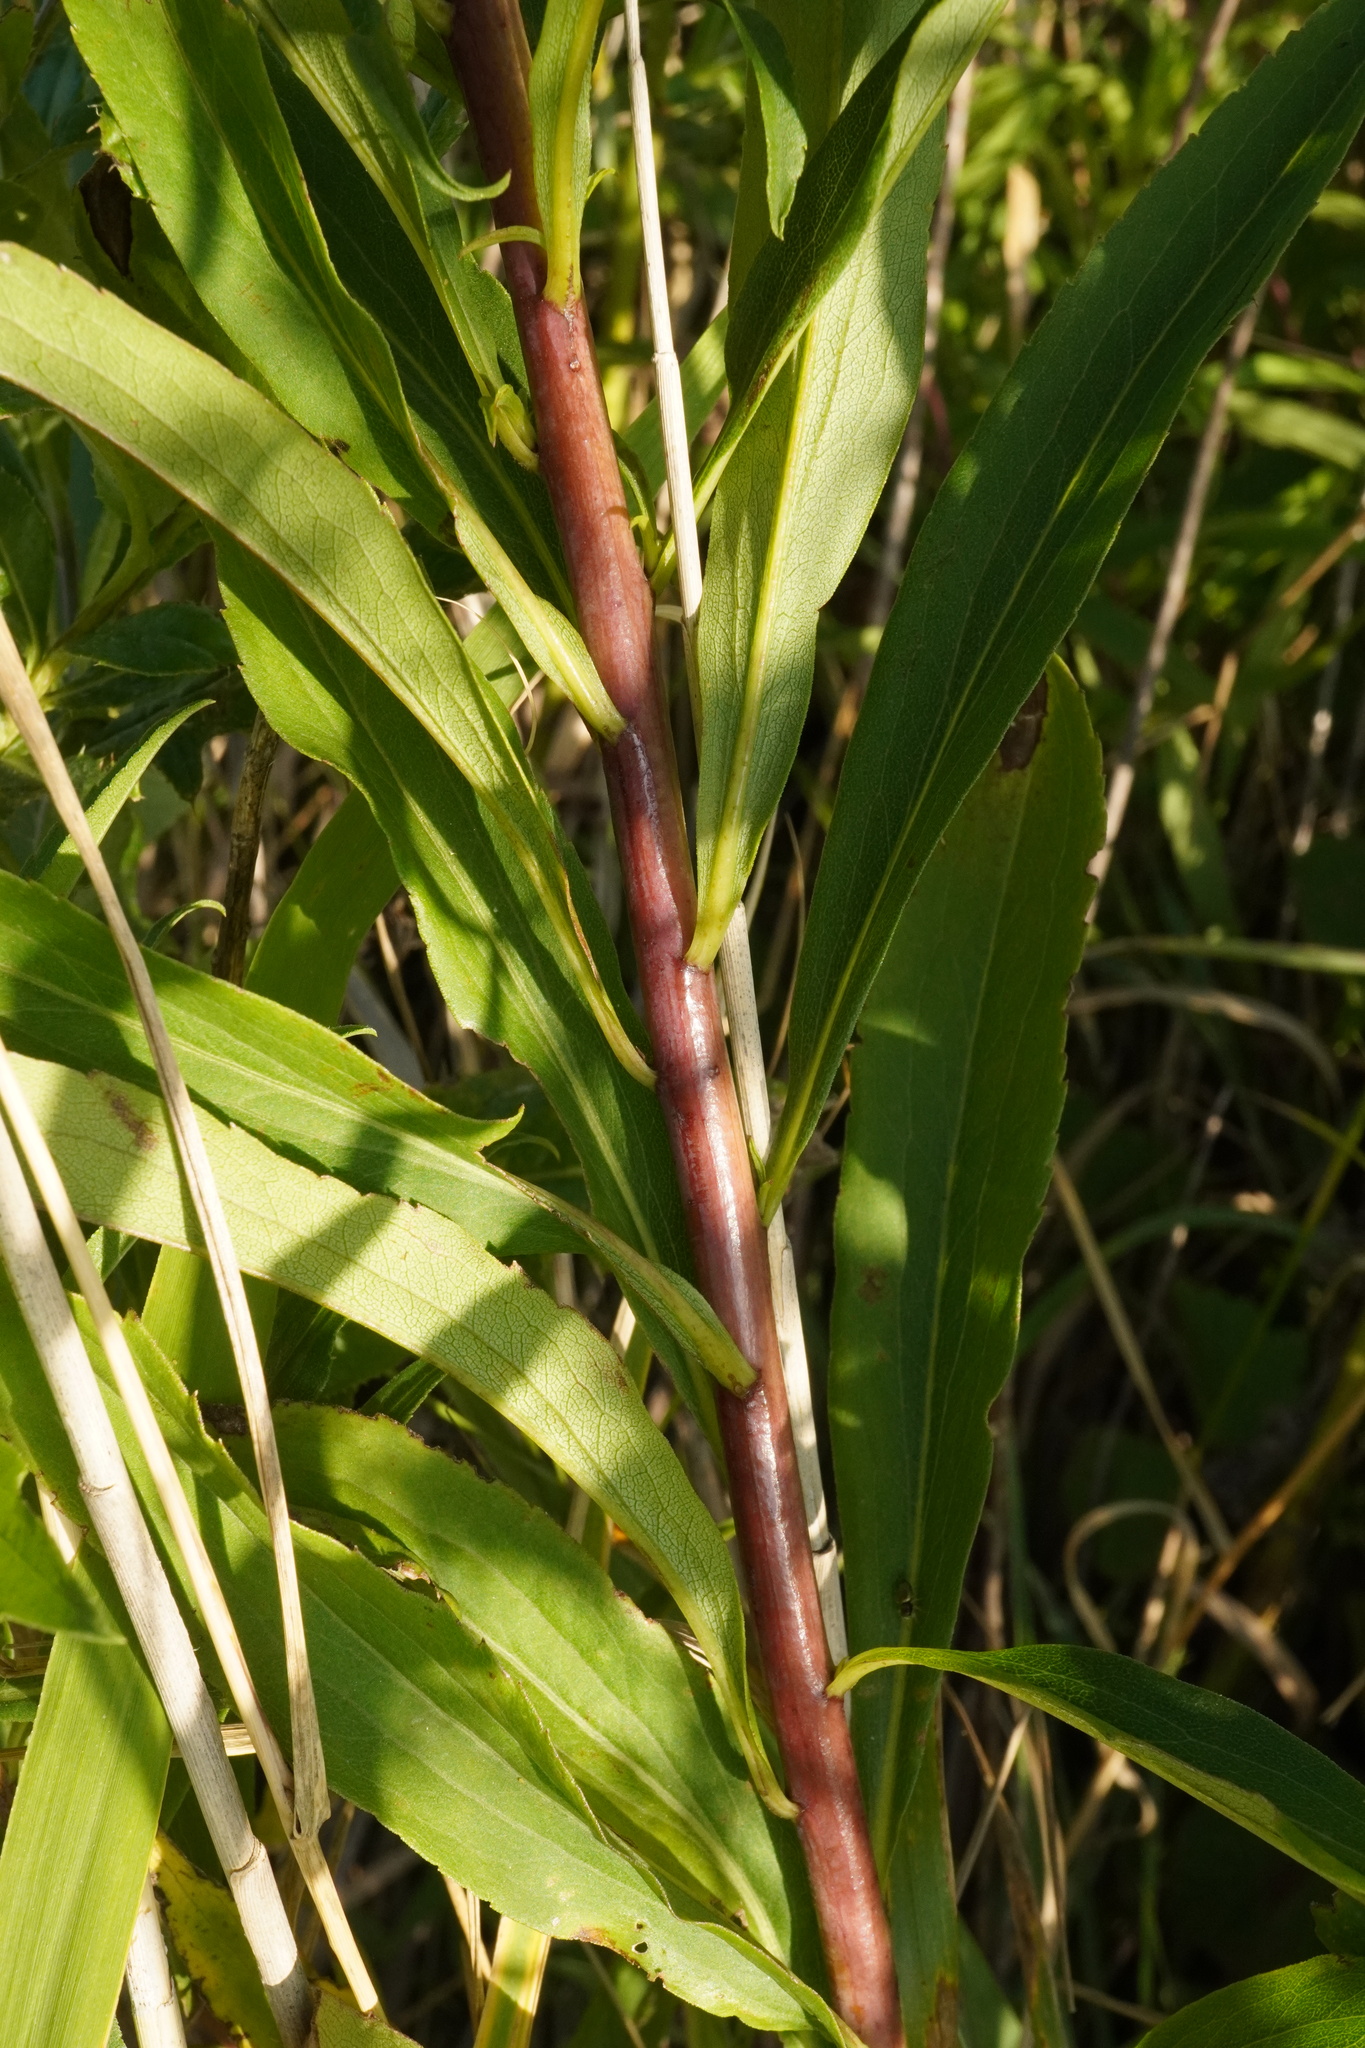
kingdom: Plantae
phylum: Tracheophyta
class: Magnoliopsida
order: Asterales
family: Asteraceae
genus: Solidago
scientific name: Solidago gigantea
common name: Giant goldenrod
